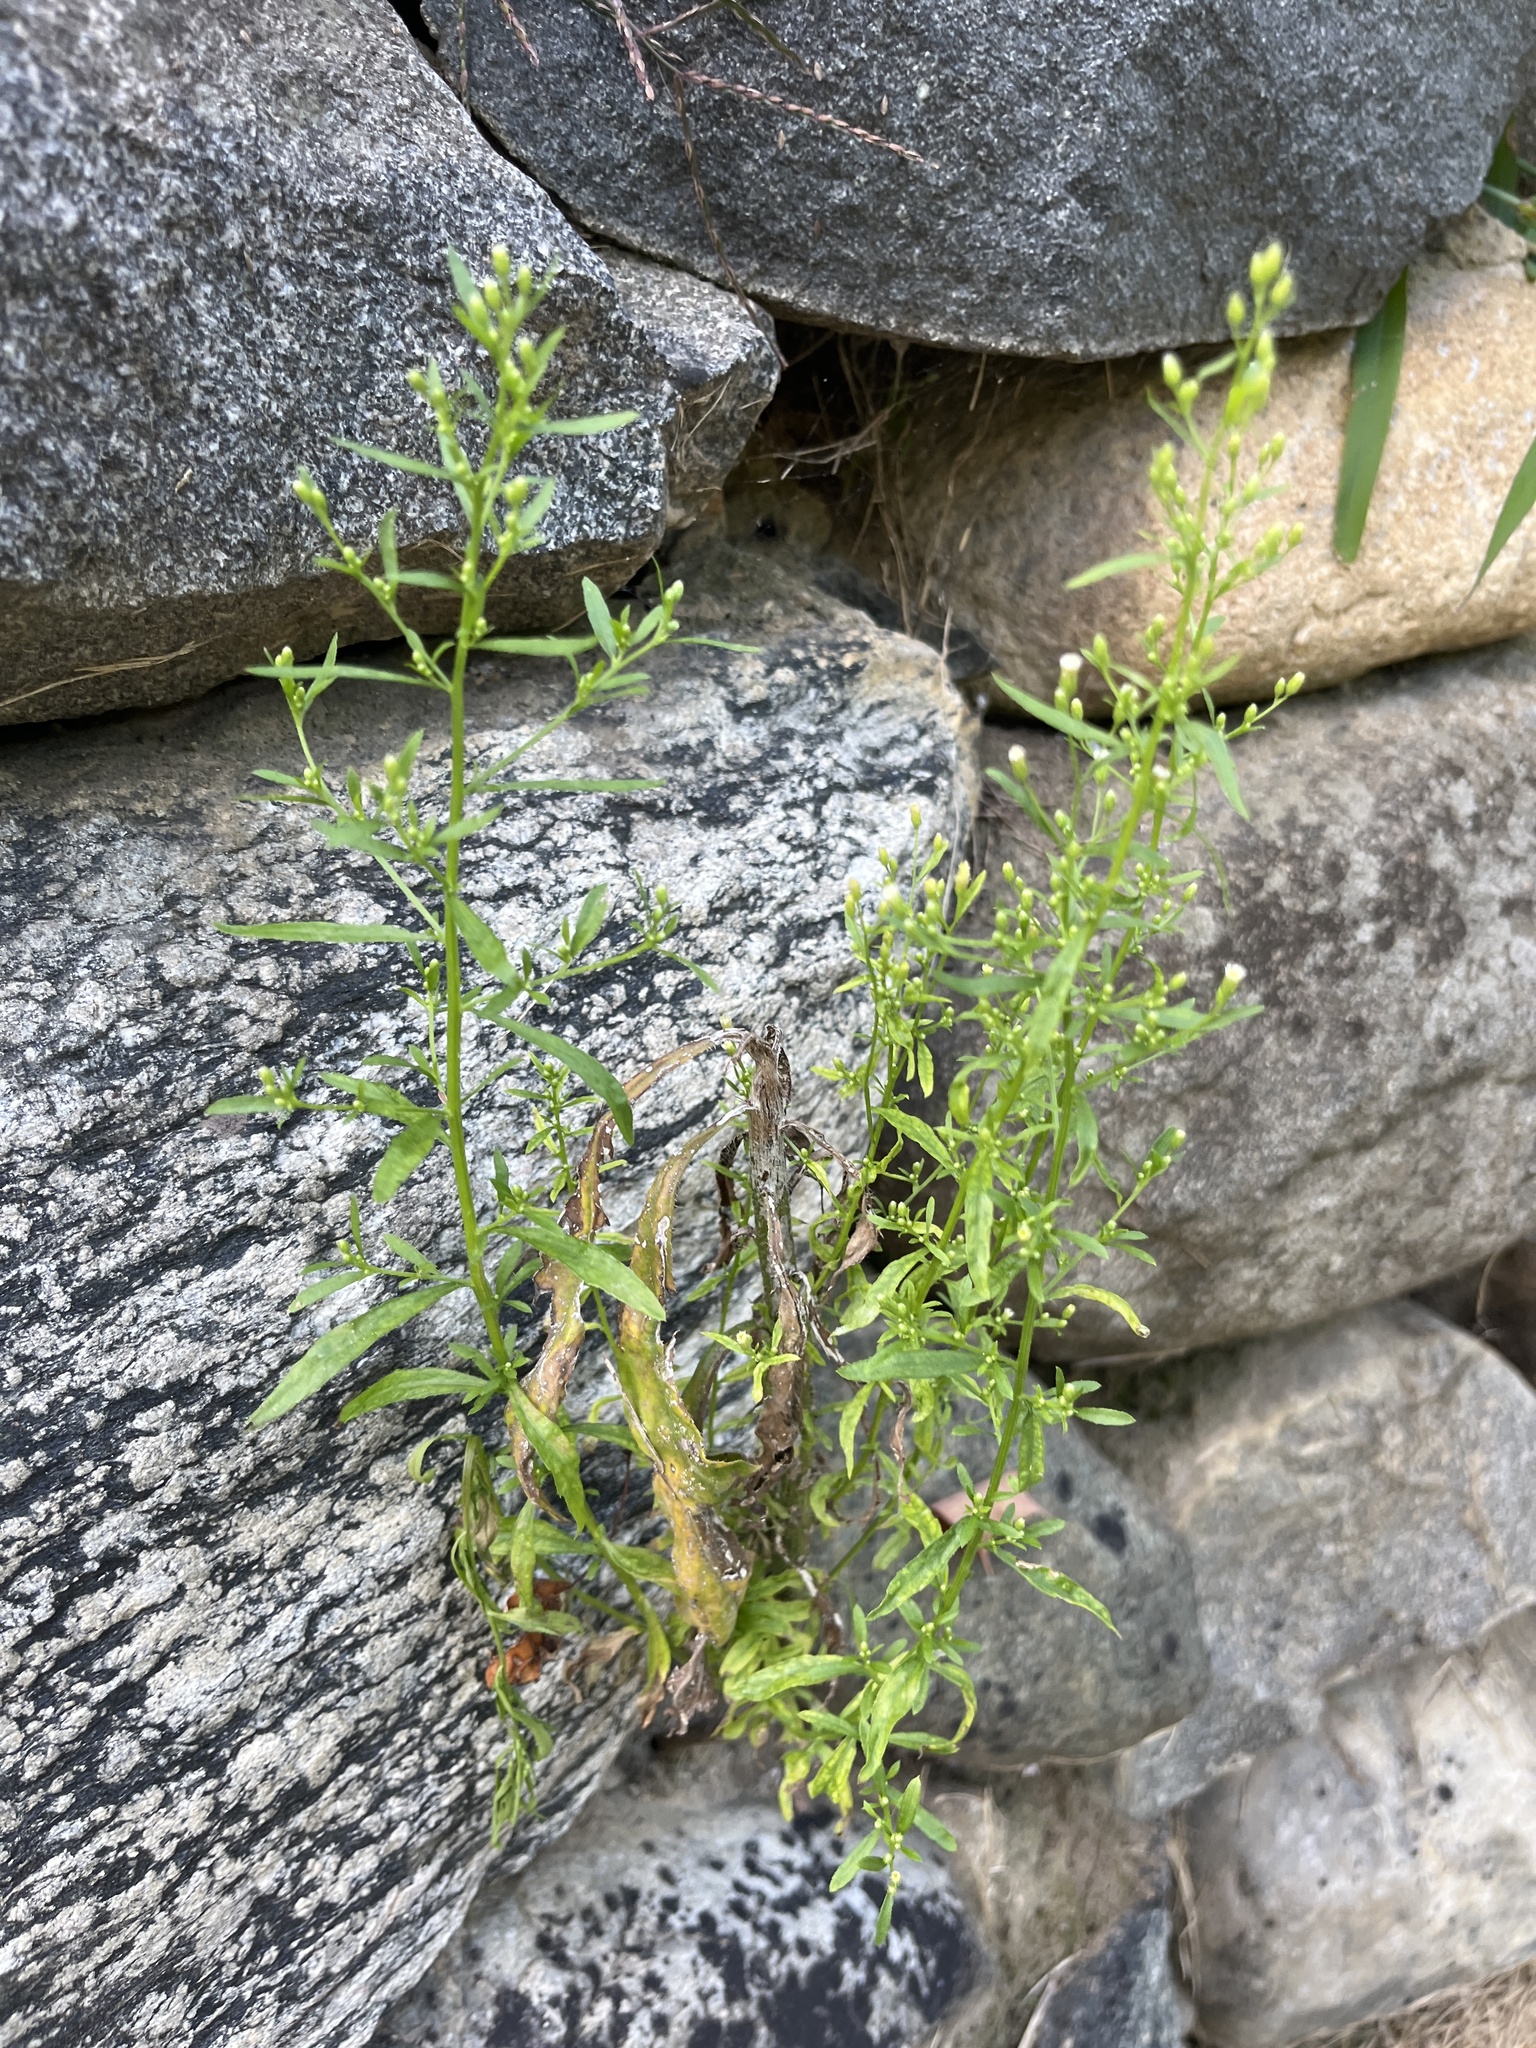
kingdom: Plantae
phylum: Tracheophyta
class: Magnoliopsida
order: Asterales
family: Asteraceae
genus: Erigeron
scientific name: Erigeron canadensis
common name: Canadian fleabane
